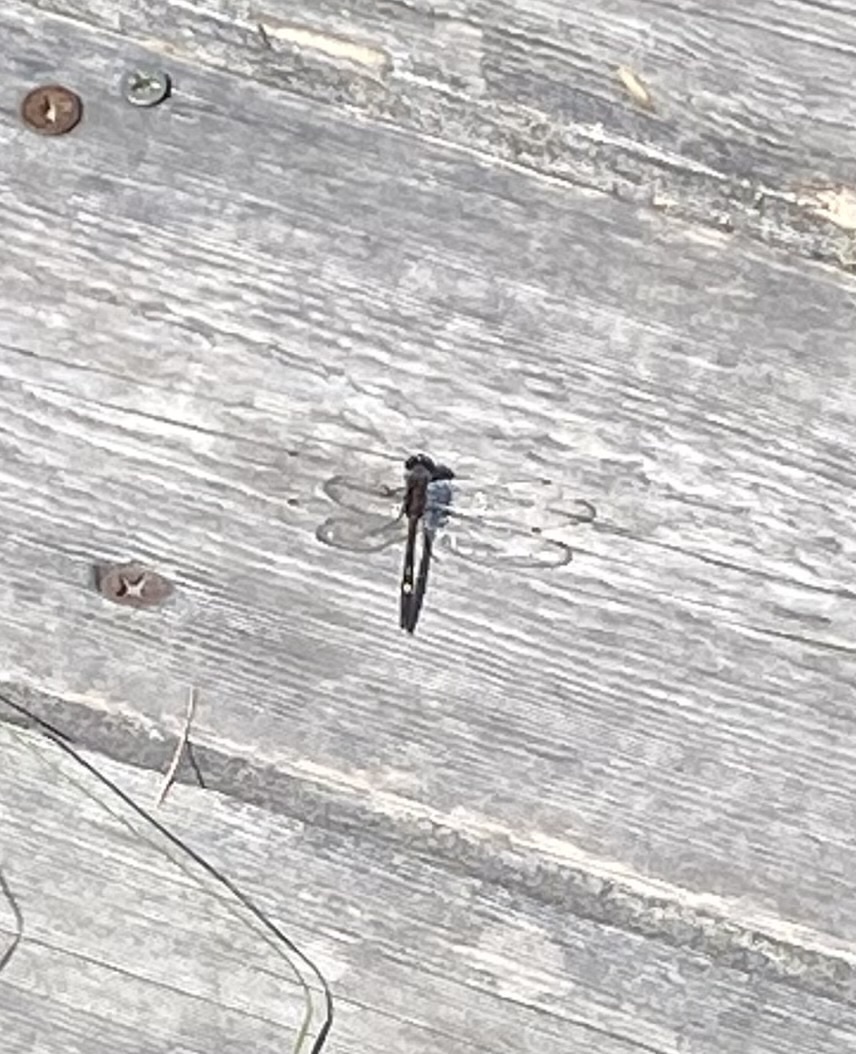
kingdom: Animalia
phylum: Arthropoda
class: Insecta
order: Odonata
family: Libellulidae
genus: Leucorrhinia
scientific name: Leucorrhinia orientalis
